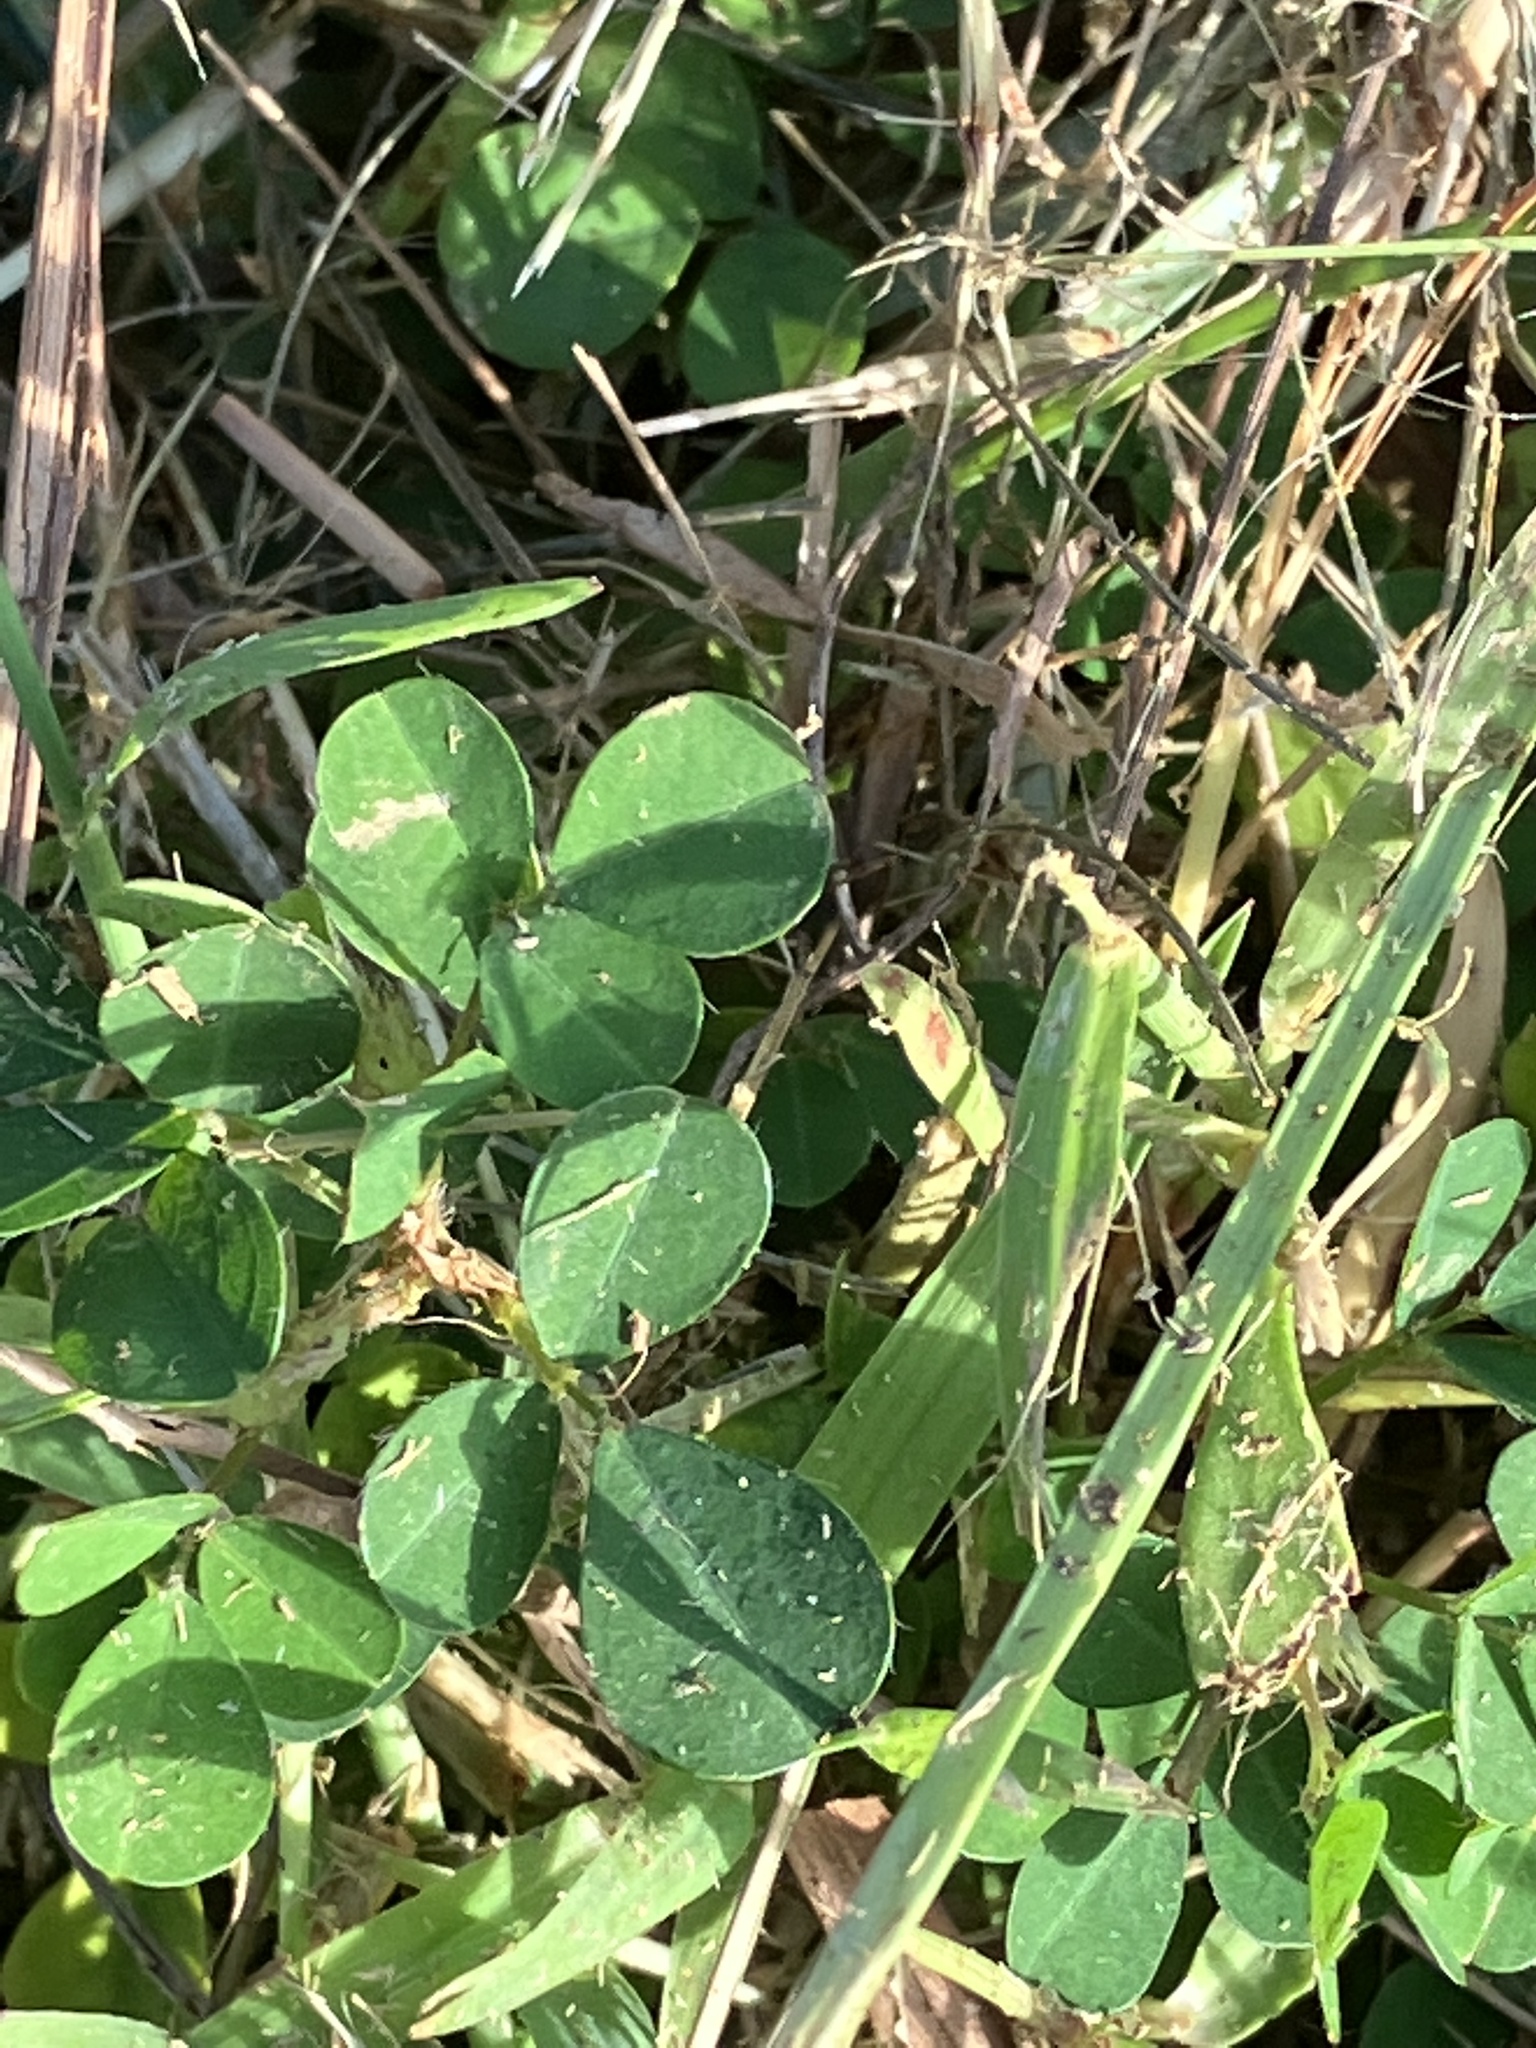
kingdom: Plantae
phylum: Tracheophyta
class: Magnoliopsida
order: Fabales
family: Fabaceae
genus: Grona
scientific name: Grona triflora
